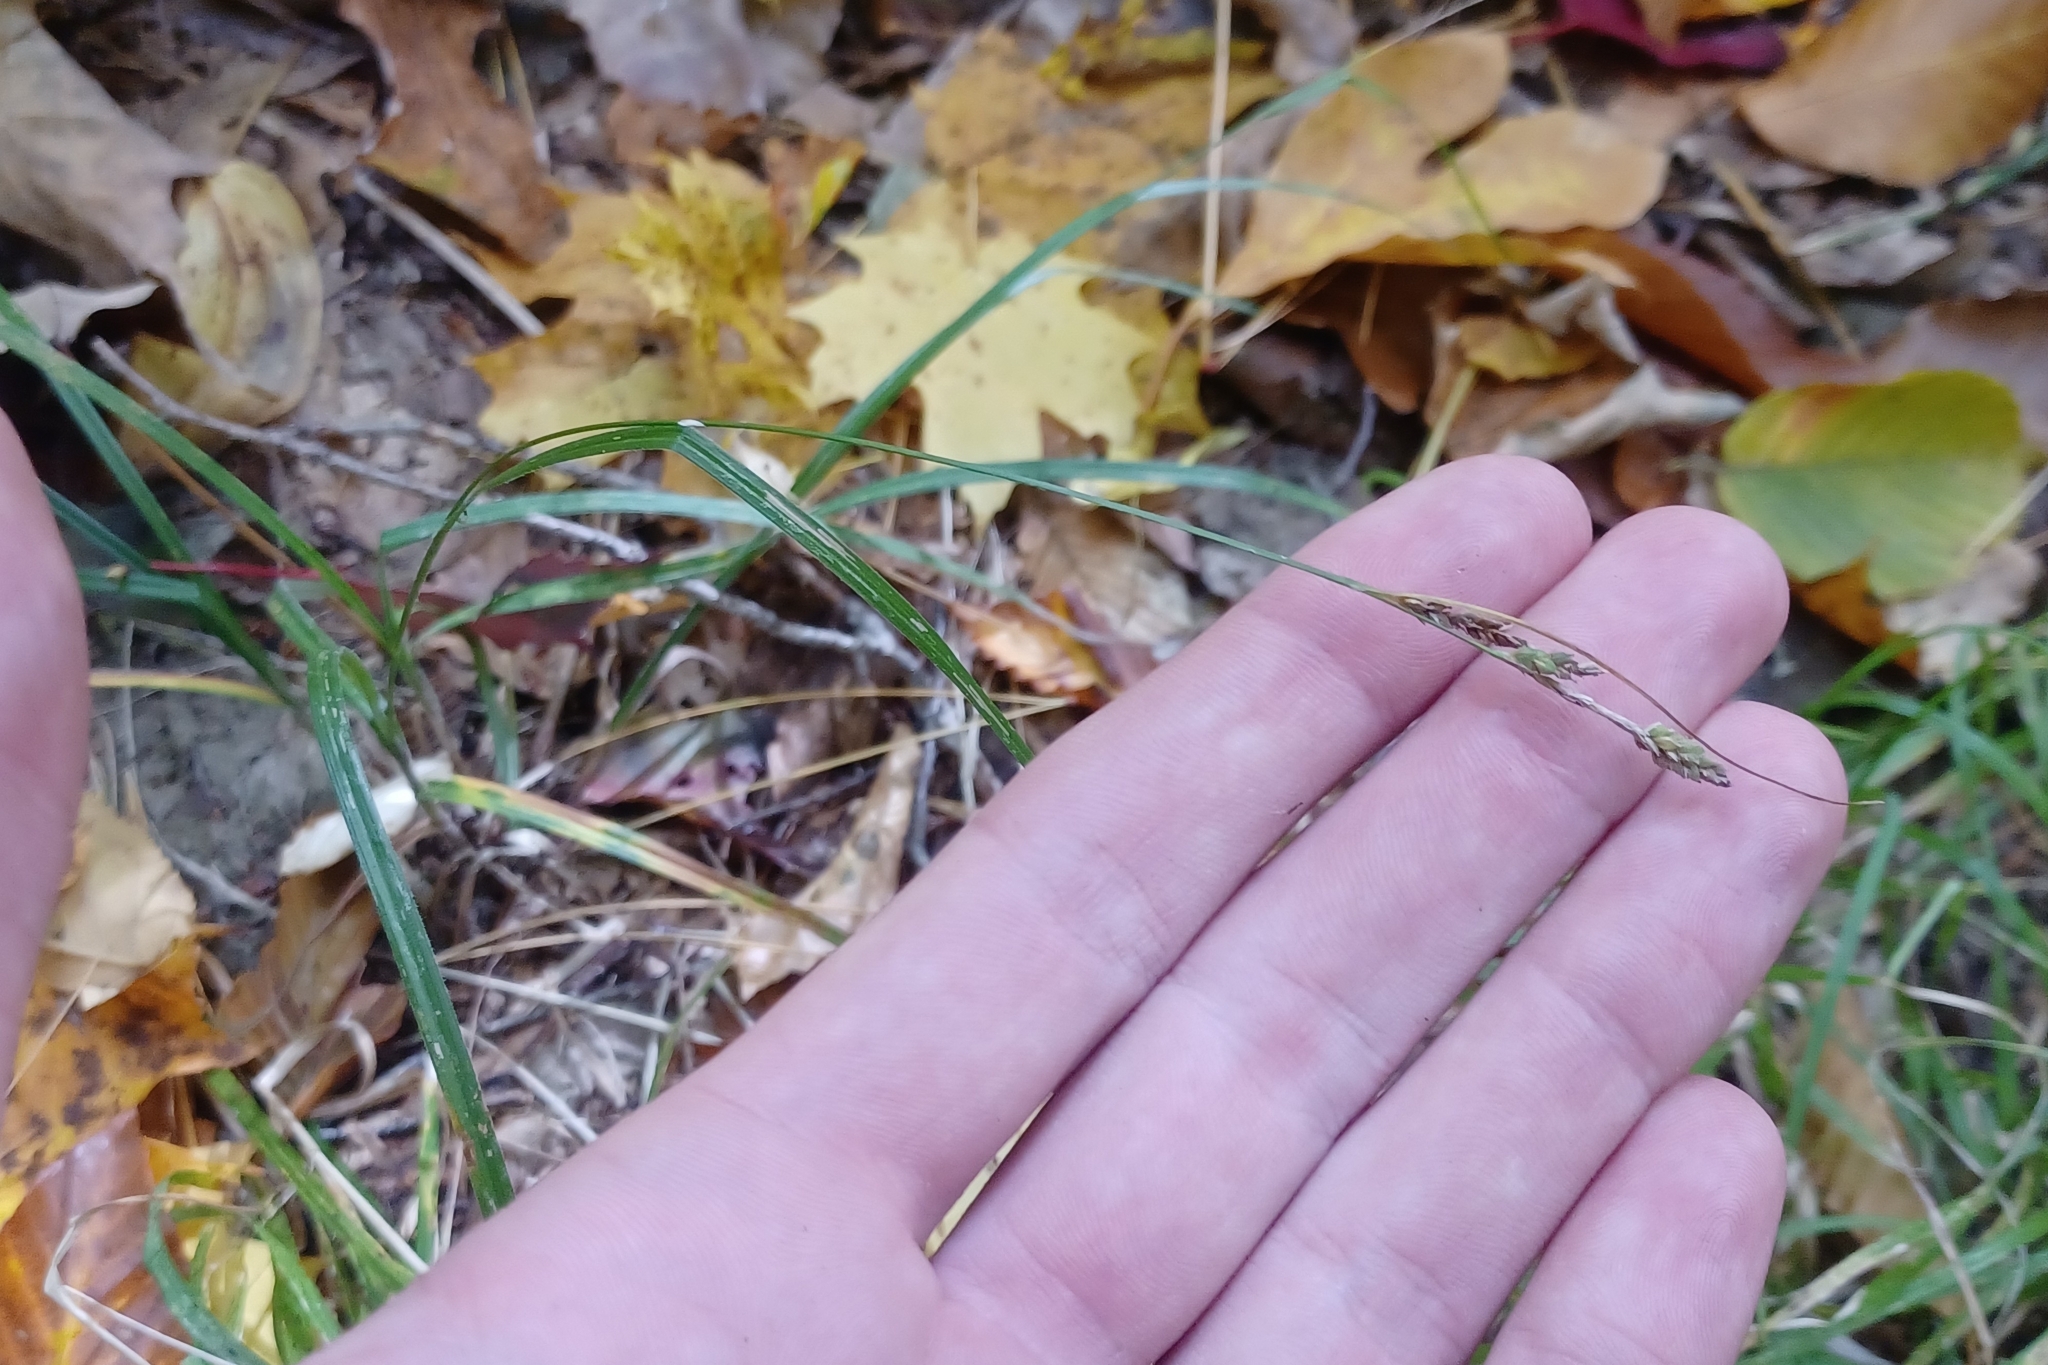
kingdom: Plantae
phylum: Tracheophyta
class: Liliopsida
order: Poales
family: Cyperaceae
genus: Carex
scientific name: Carex swanii
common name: Downy green sedge
